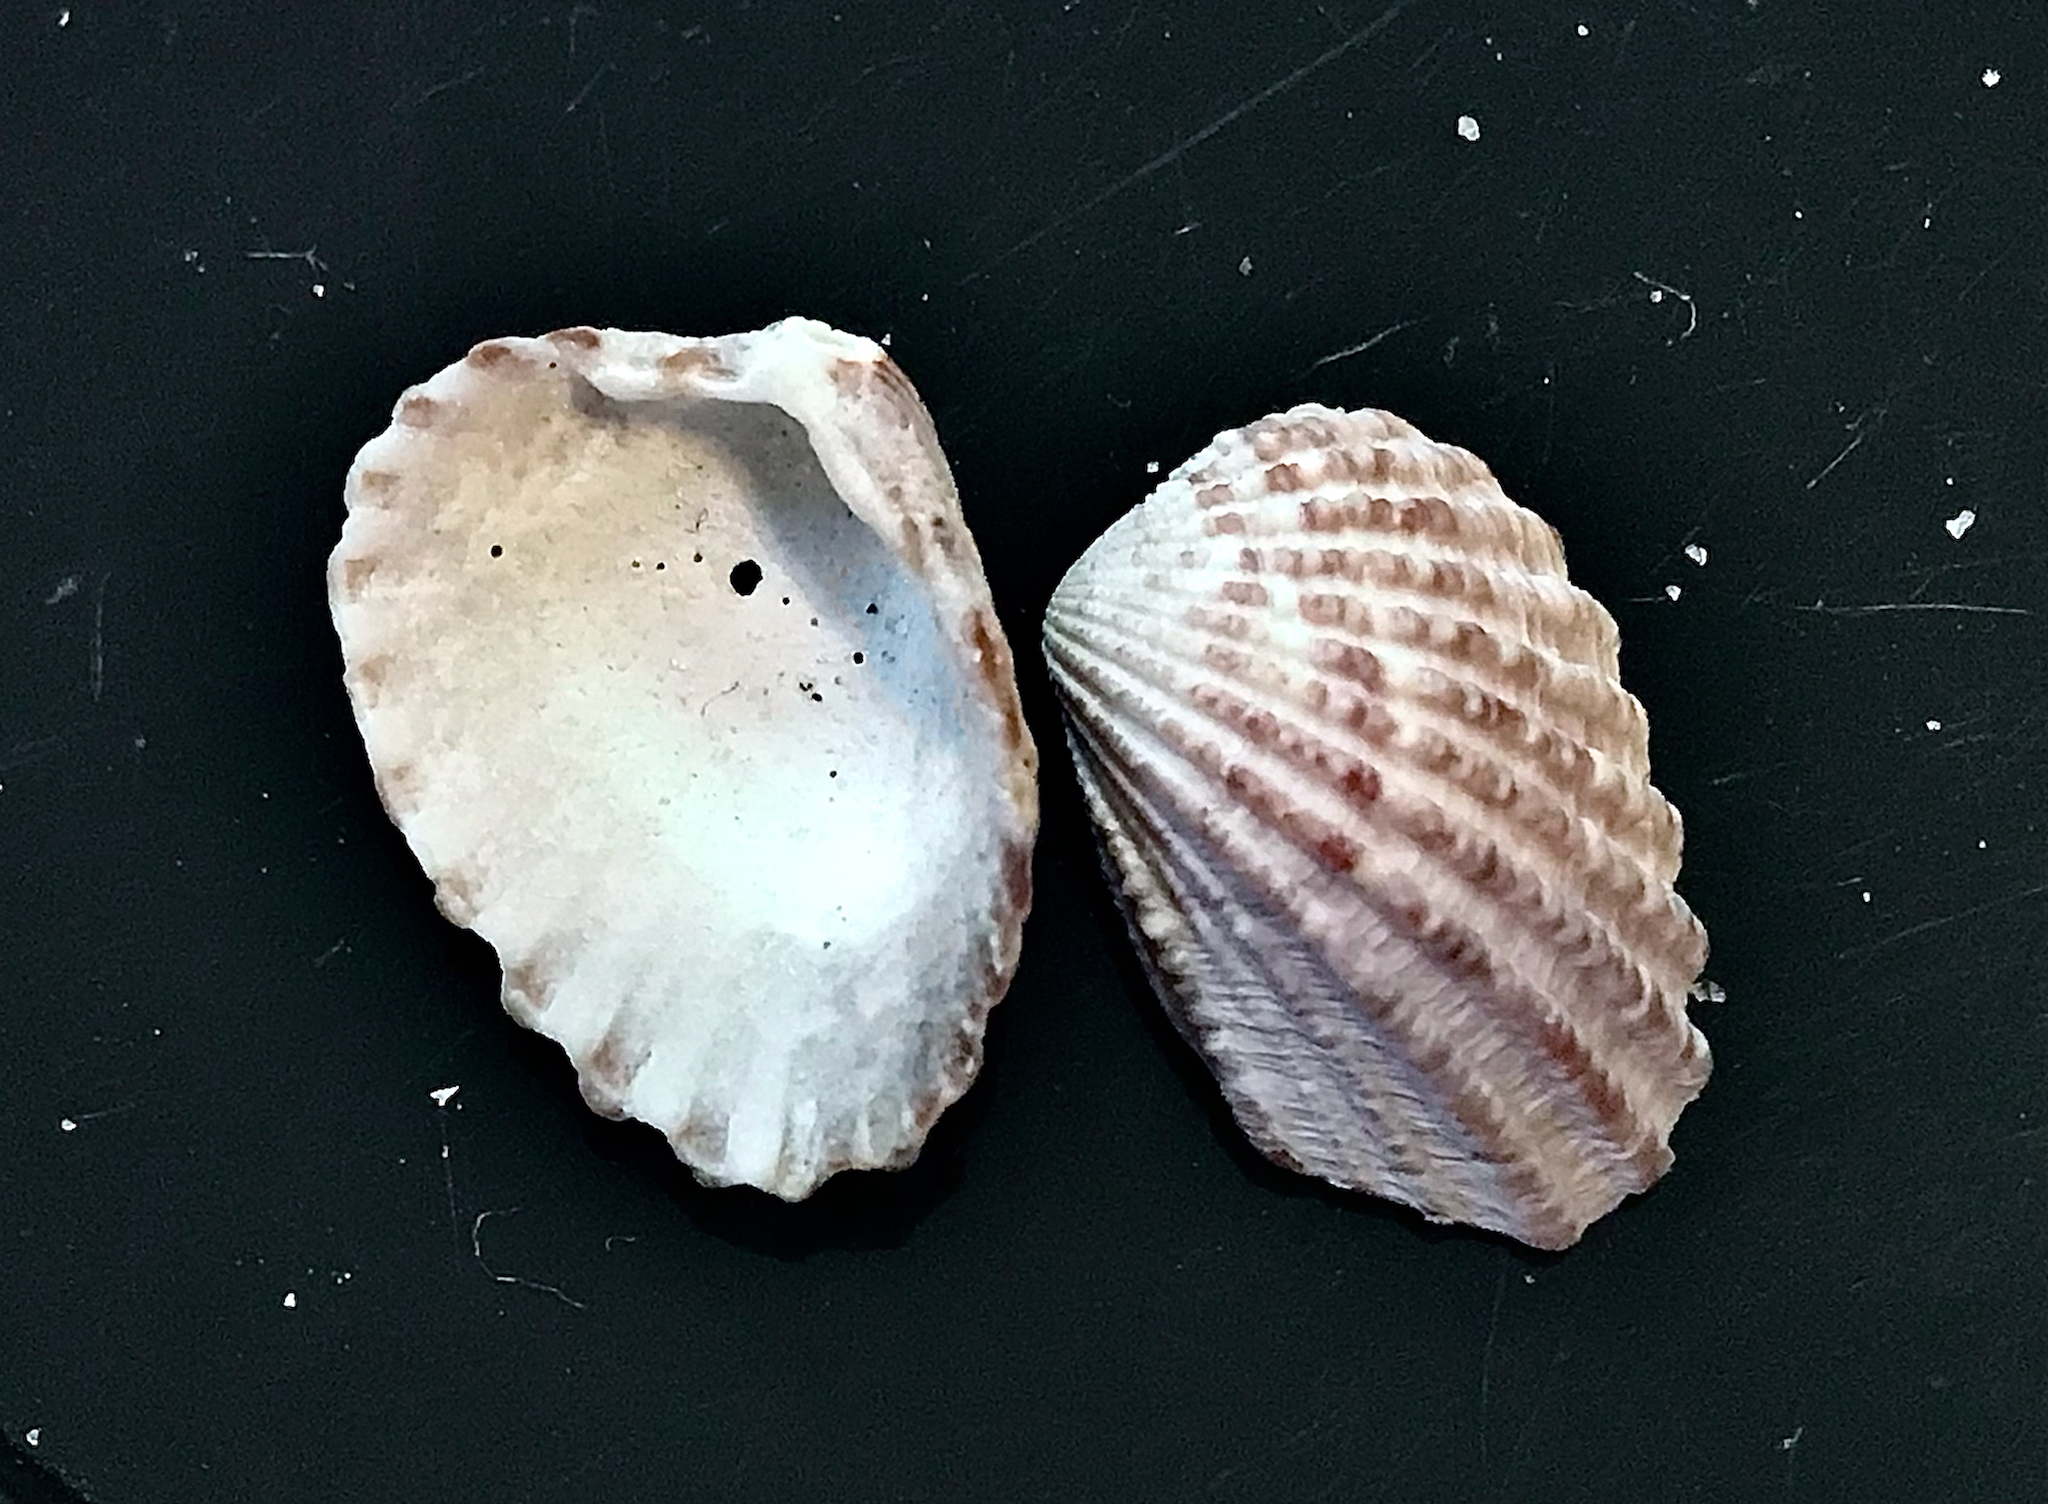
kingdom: Animalia
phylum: Mollusca
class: Bivalvia
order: Carditida
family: Carditidae
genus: Cardites
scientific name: Cardites floridanus
